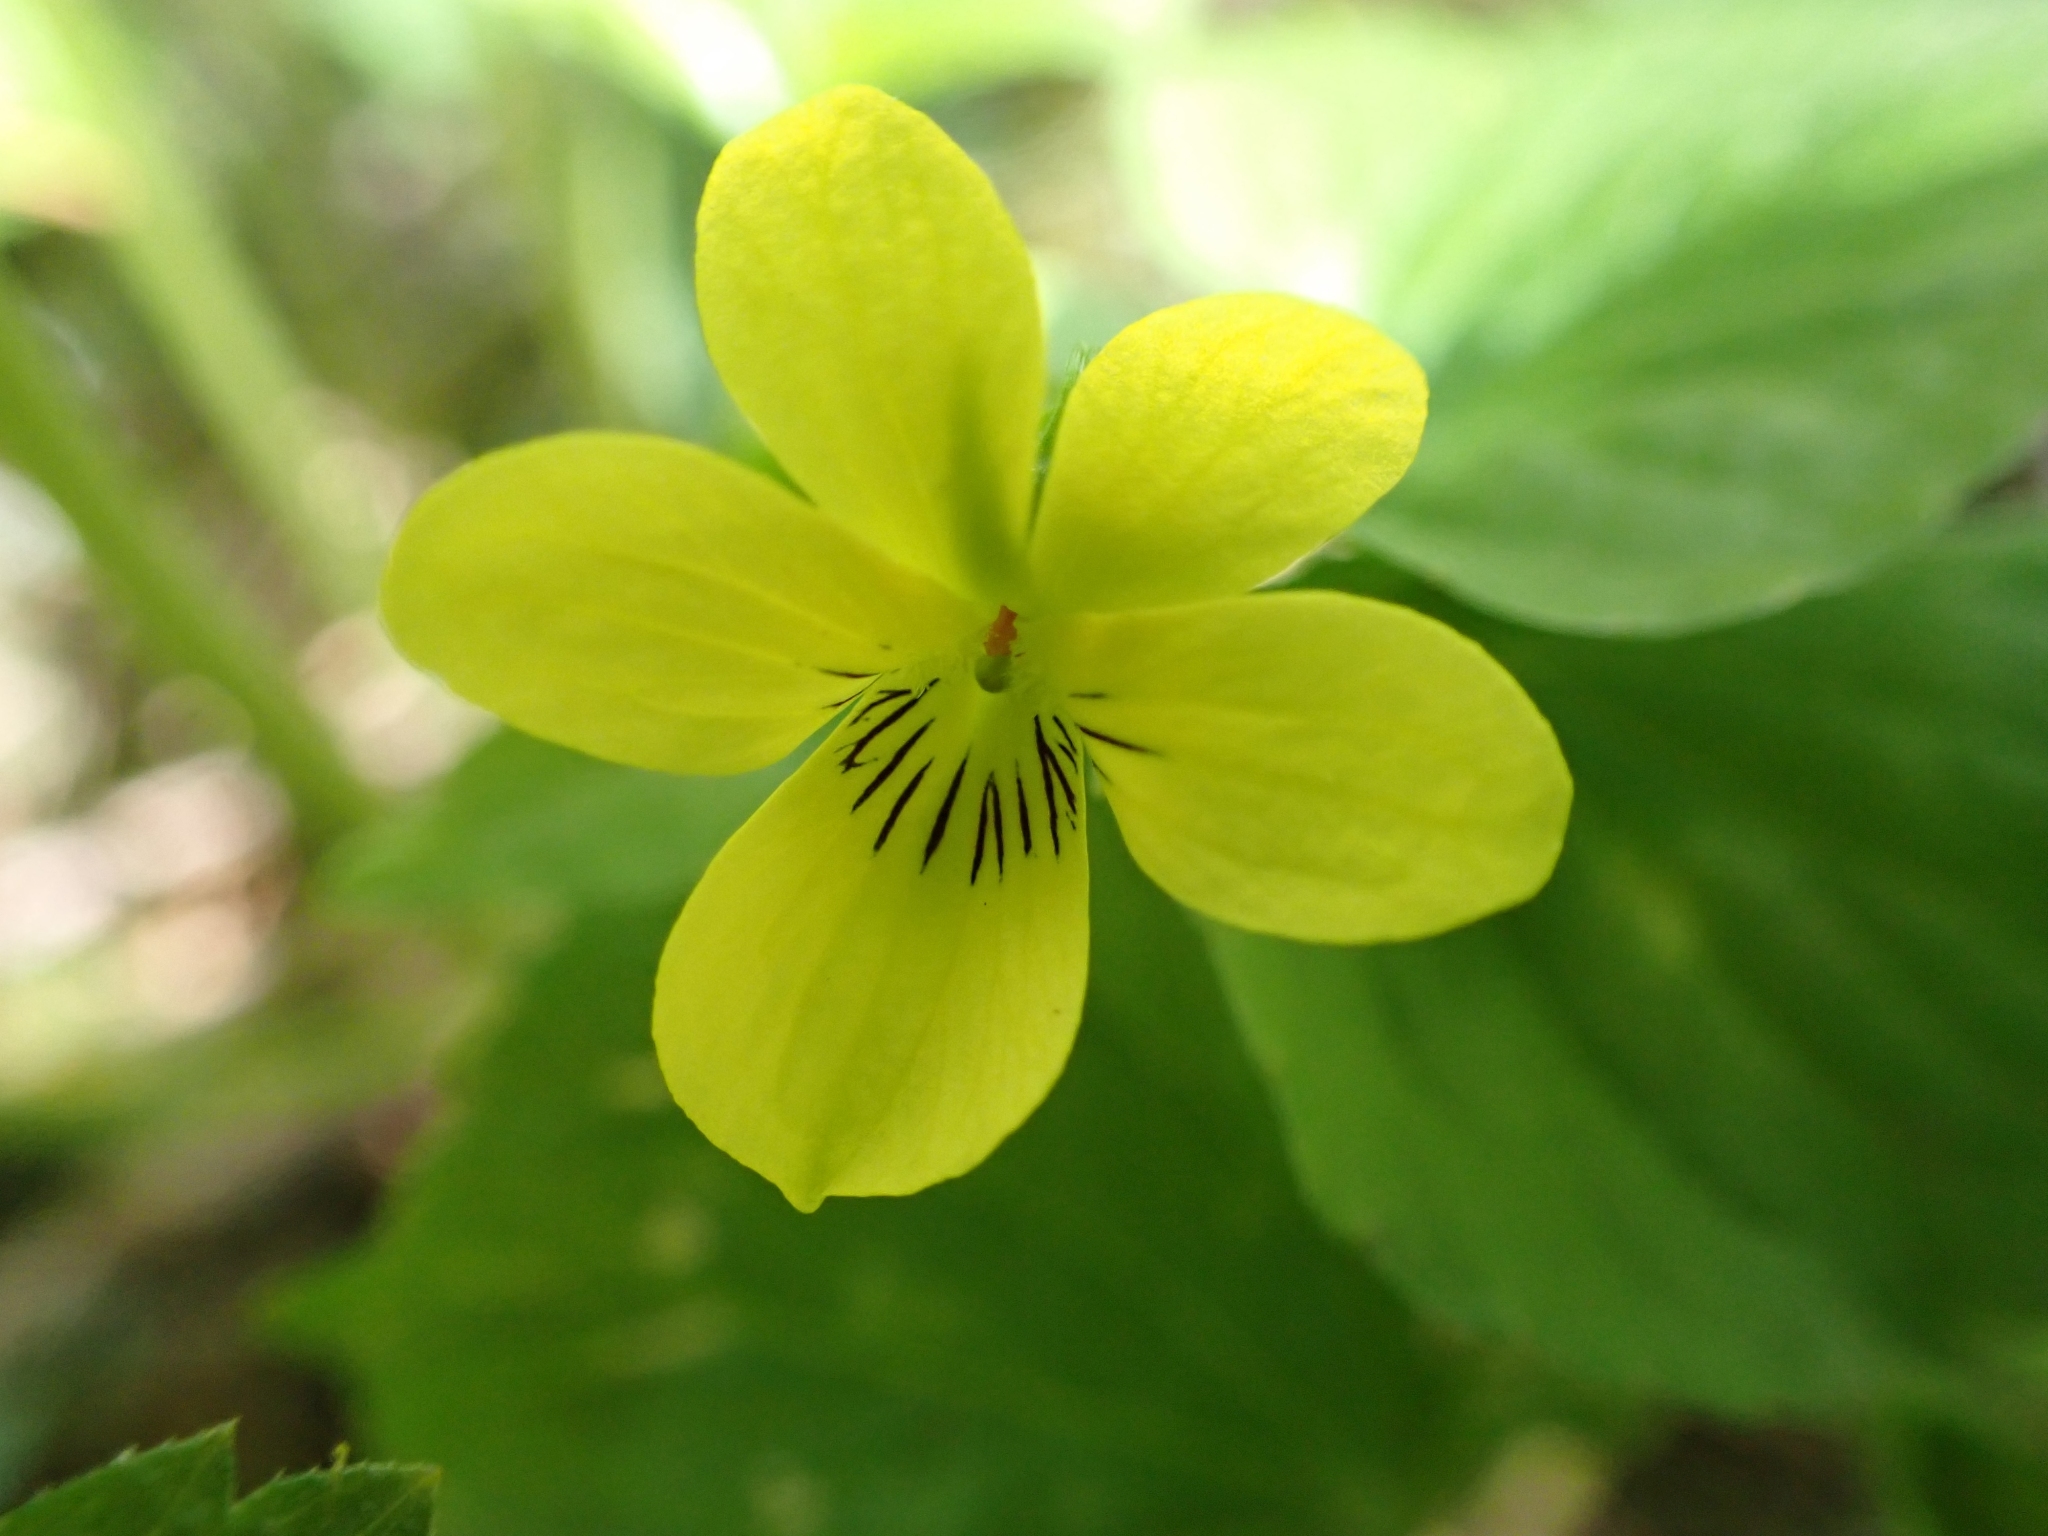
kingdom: Plantae
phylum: Tracheophyta
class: Magnoliopsida
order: Malpighiales
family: Violaceae
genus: Viola
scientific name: Viola glabella
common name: Stream violet
